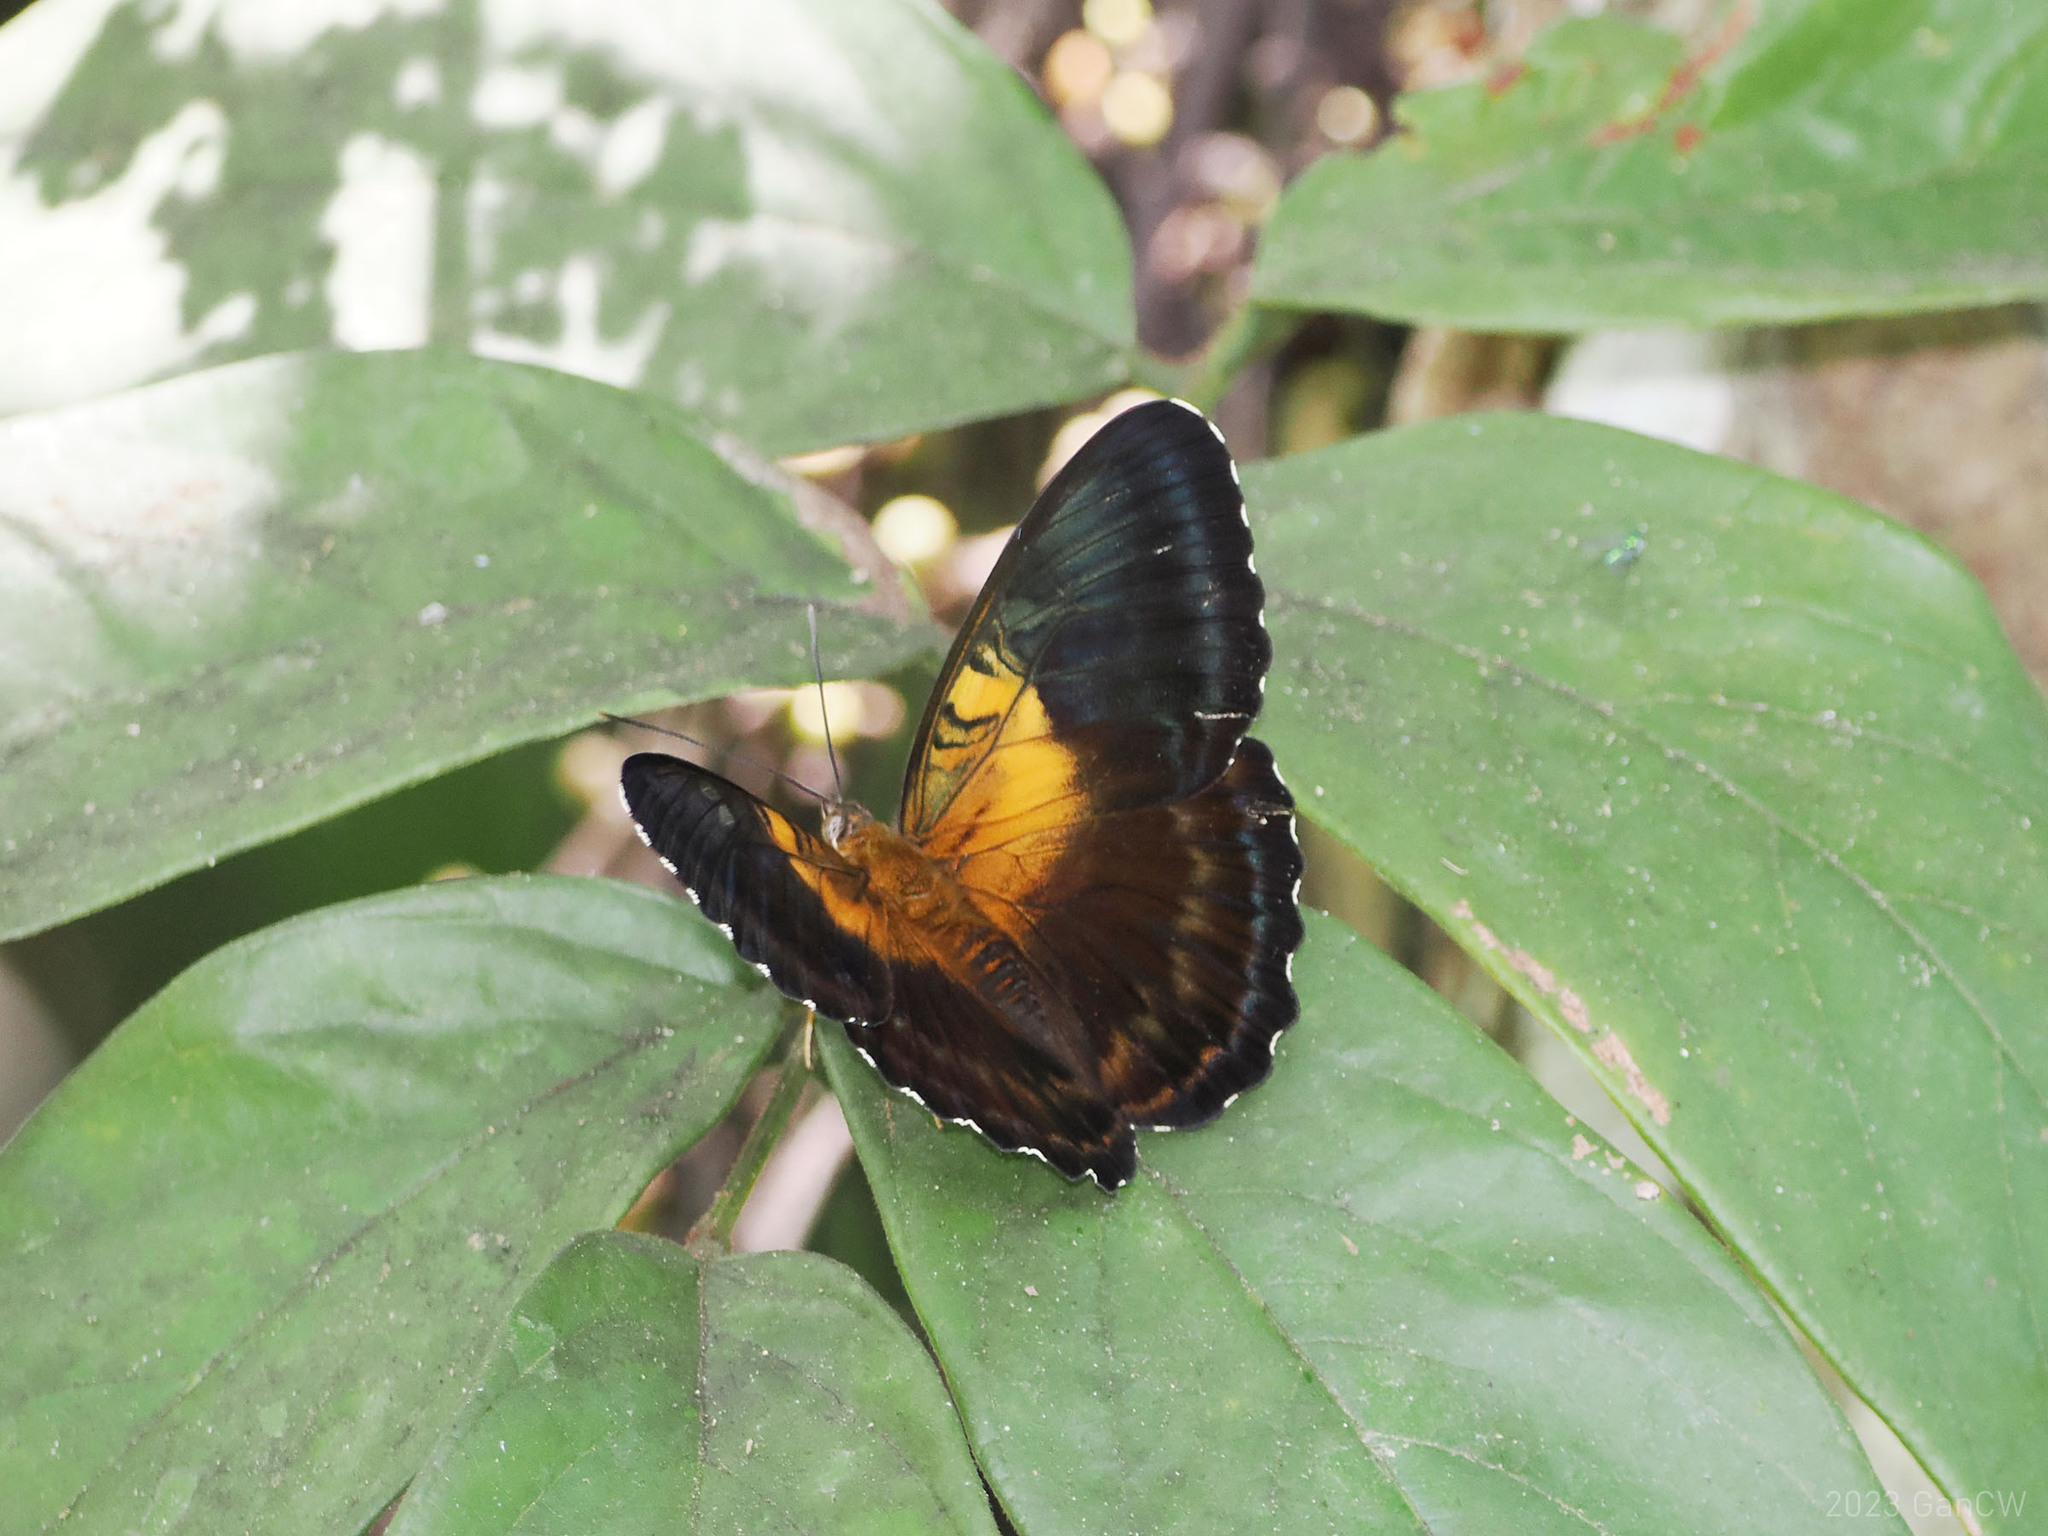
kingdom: Animalia
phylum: Arthropoda
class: Insecta
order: Lepidoptera
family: Nymphalidae
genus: Parthenos
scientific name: Parthenos aspila
